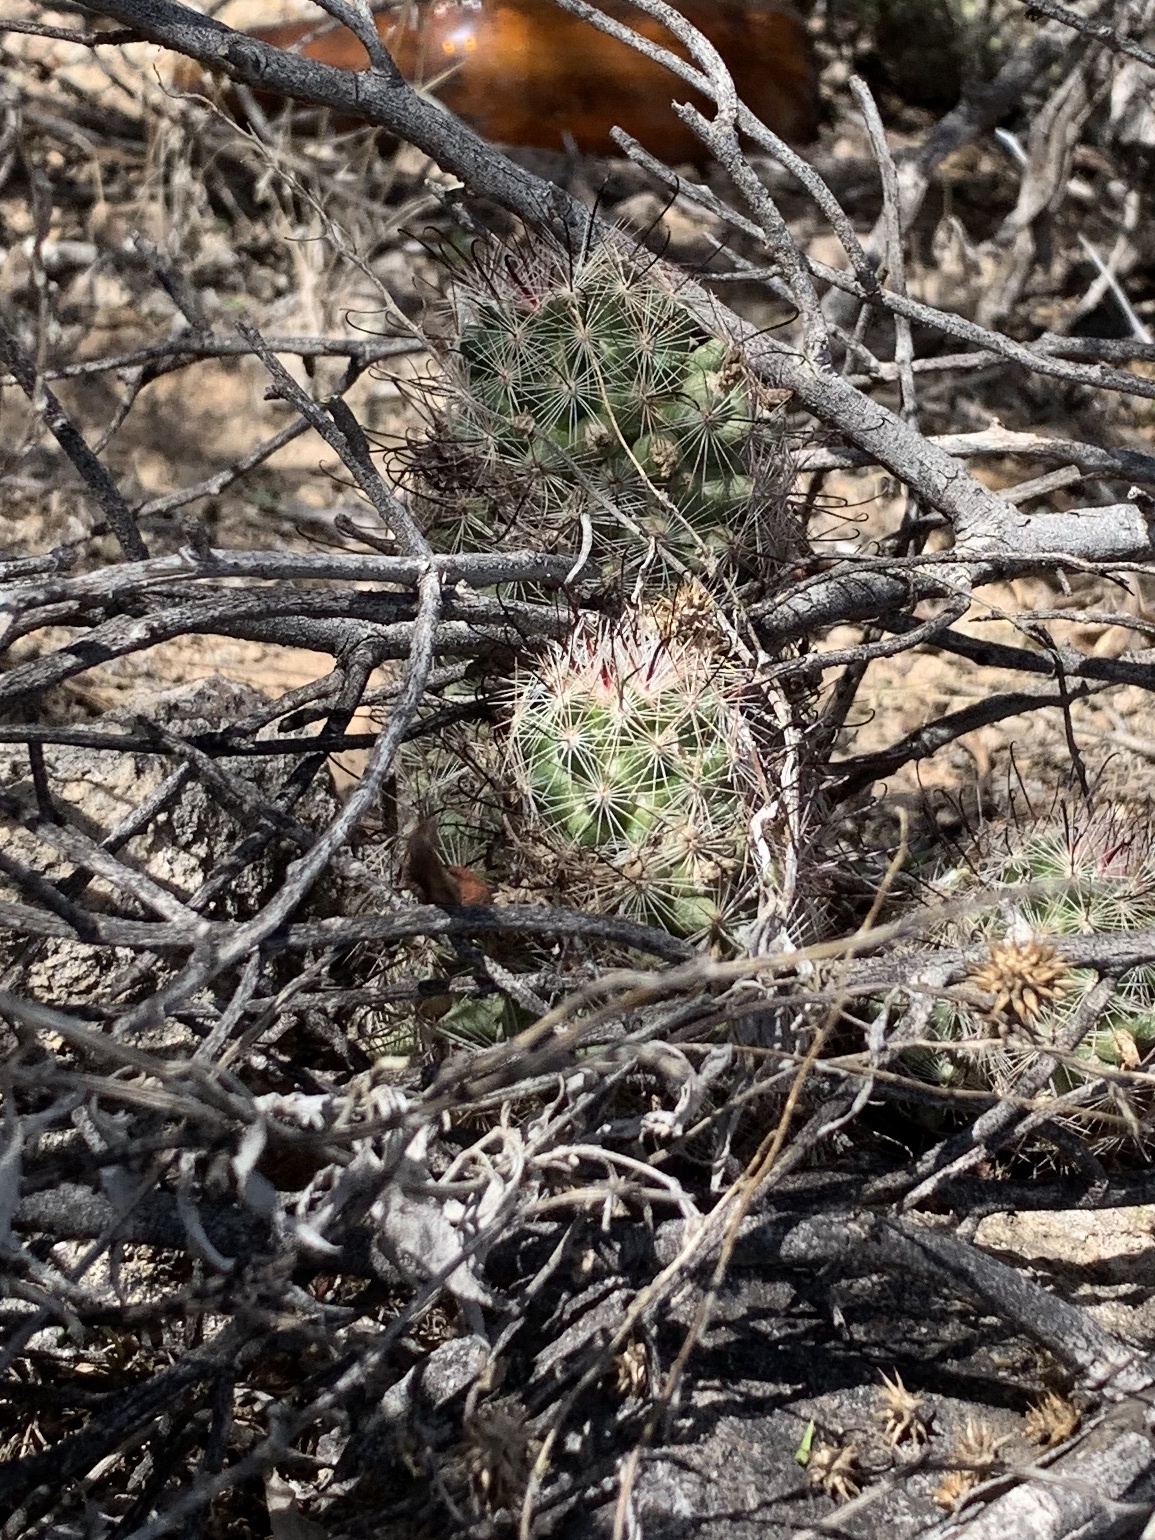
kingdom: Plantae
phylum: Tracheophyta
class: Magnoliopsida
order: Caryophyllales
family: Cactaceae
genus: Cochemiea
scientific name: Cochemiea grahamii
